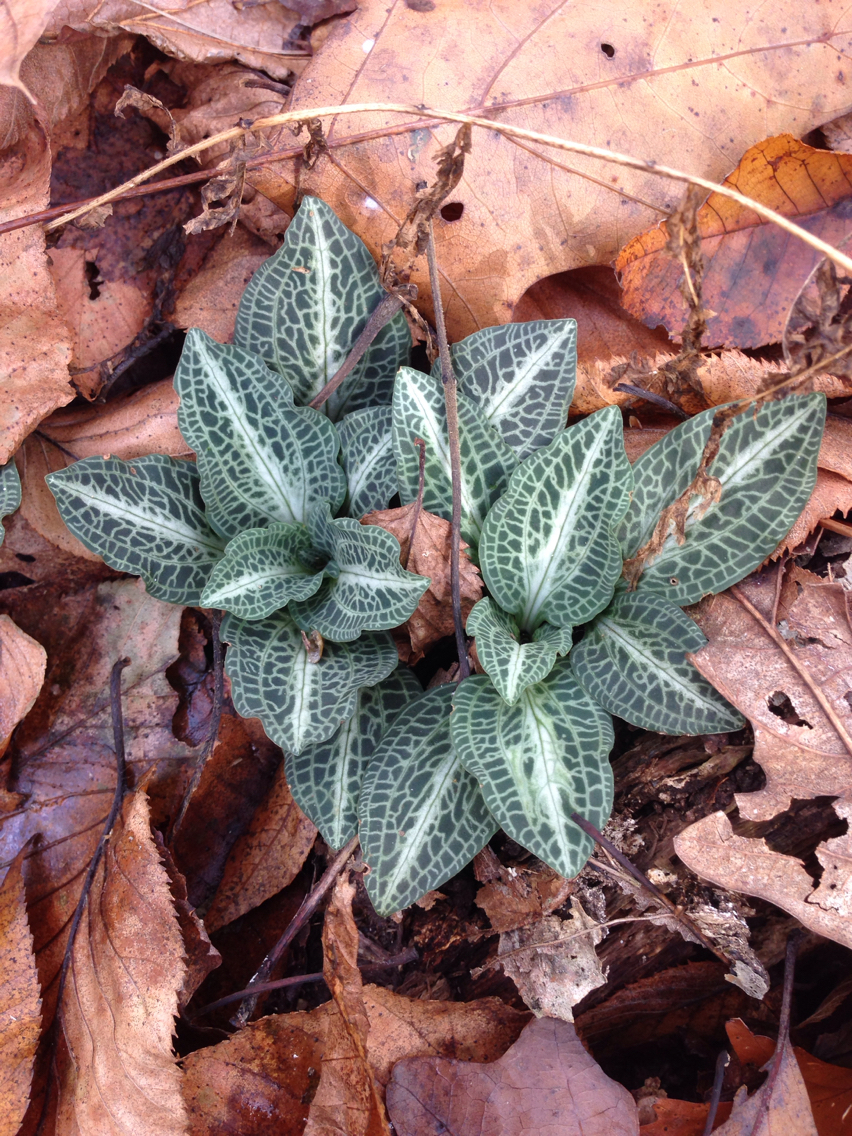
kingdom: Plantae
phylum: Tracheophyta
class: Liliopsida
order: Asparagales
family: Orchidaceae
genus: Goodyera
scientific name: Goodyera pubescens
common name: Downy rattlesnake-plantain
